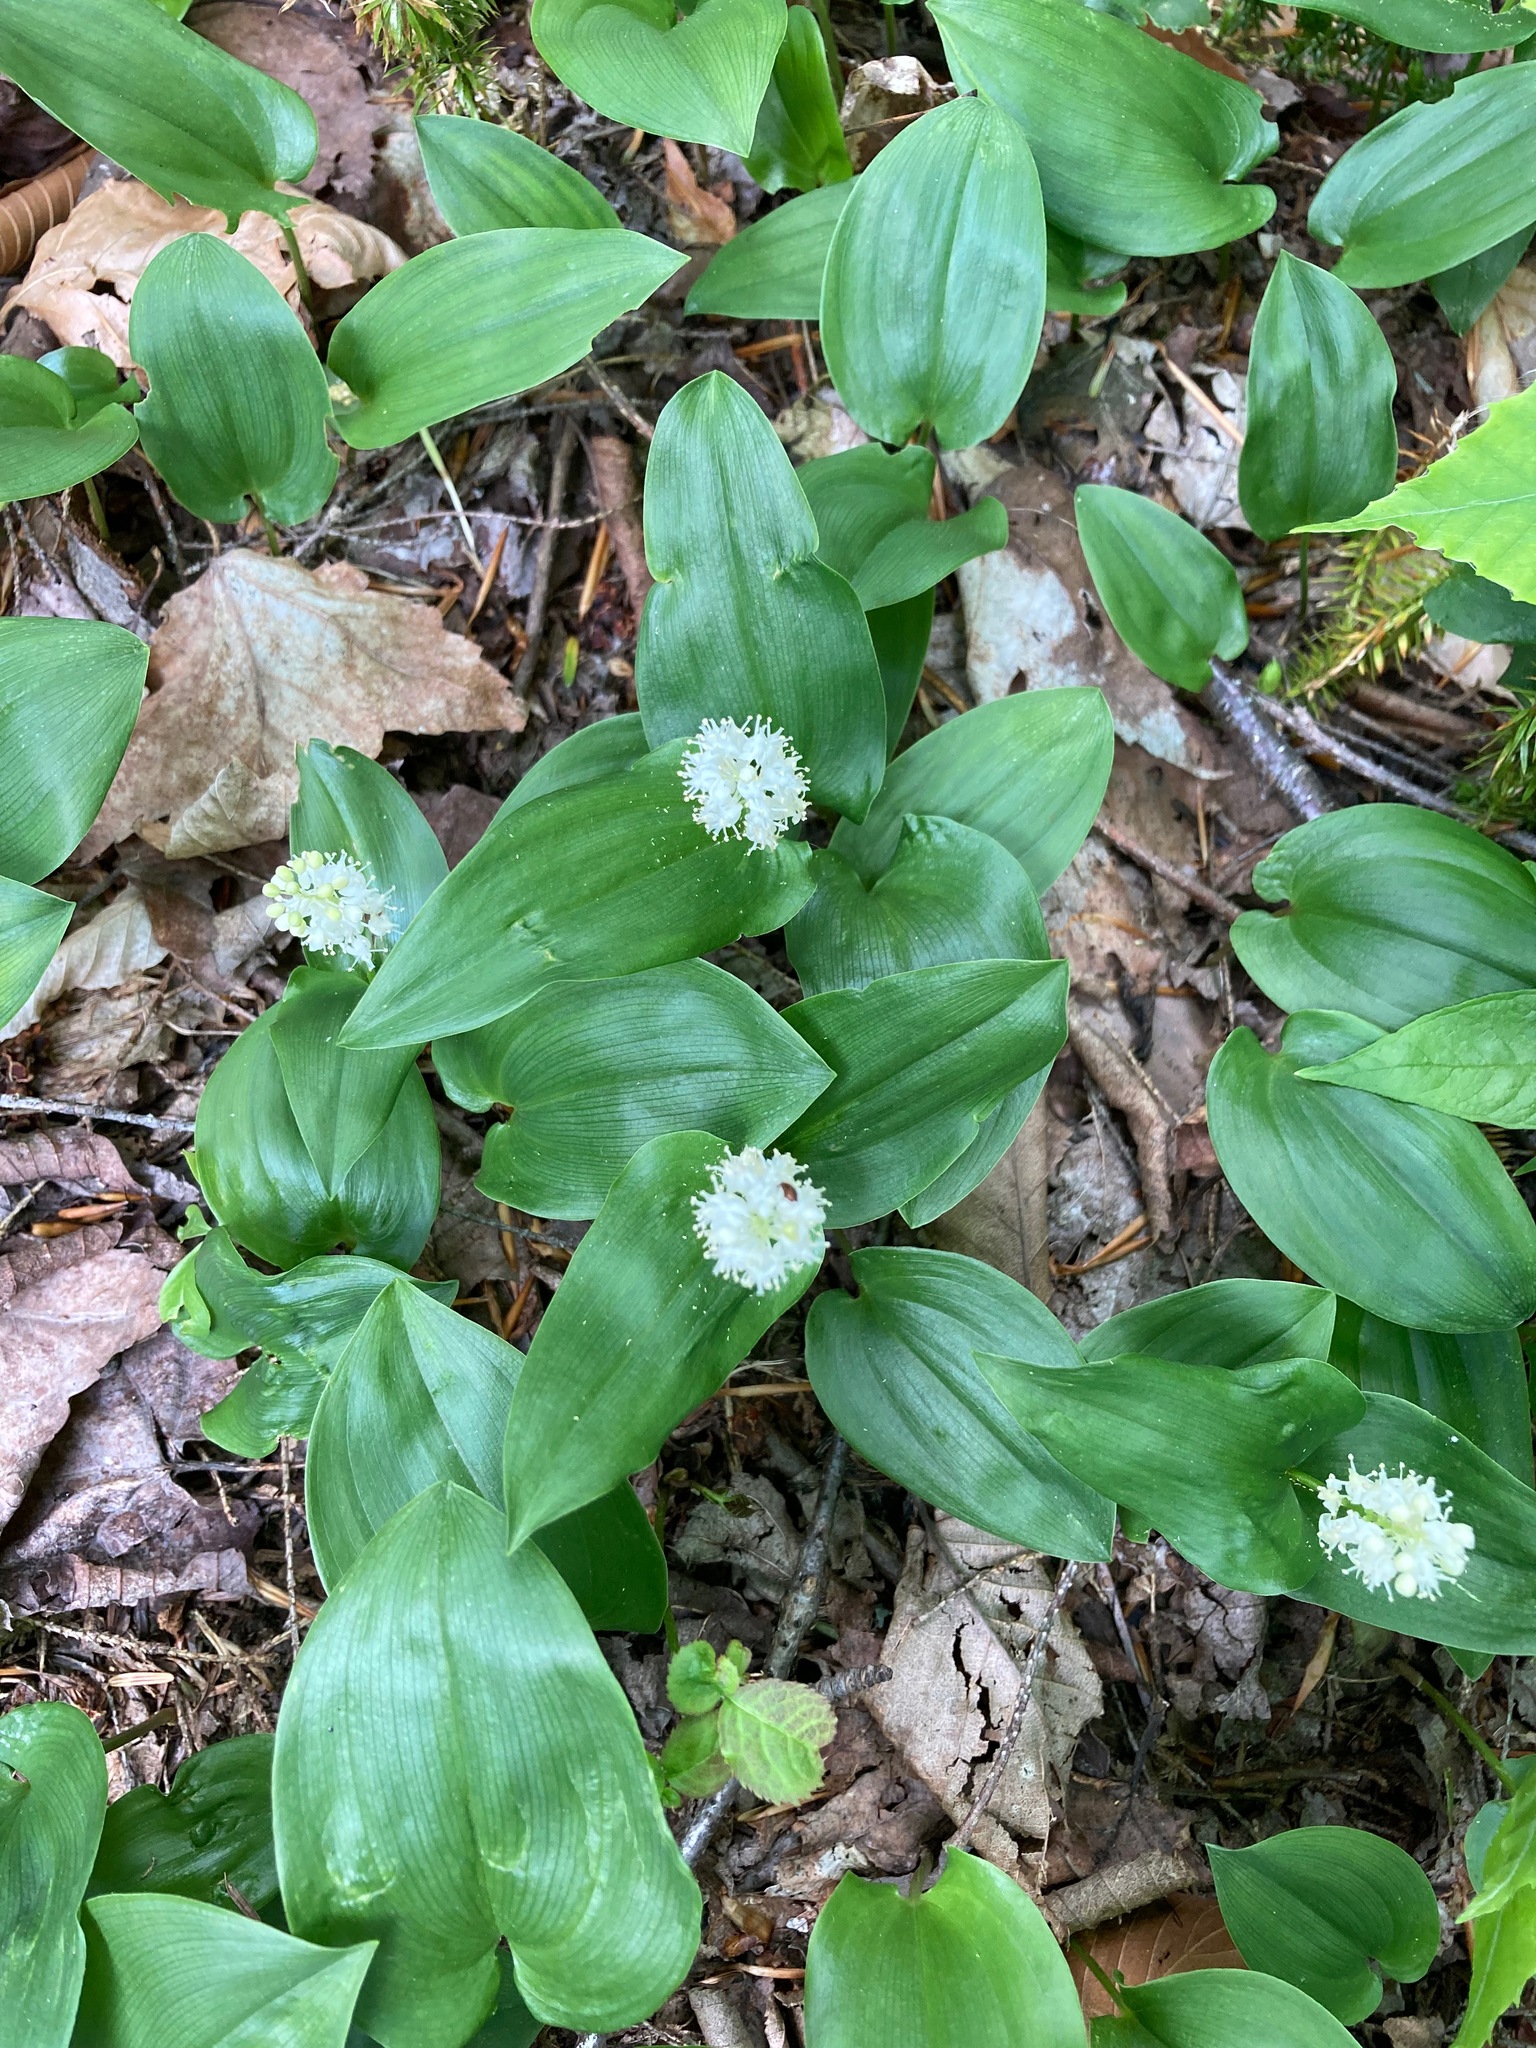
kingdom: Plantae
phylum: Tracheophyta
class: Liliopsida
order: Asparagales
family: Asparagaceae
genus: Maianthemum
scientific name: Maianthemum canadense
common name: False lily-of-the-valley
